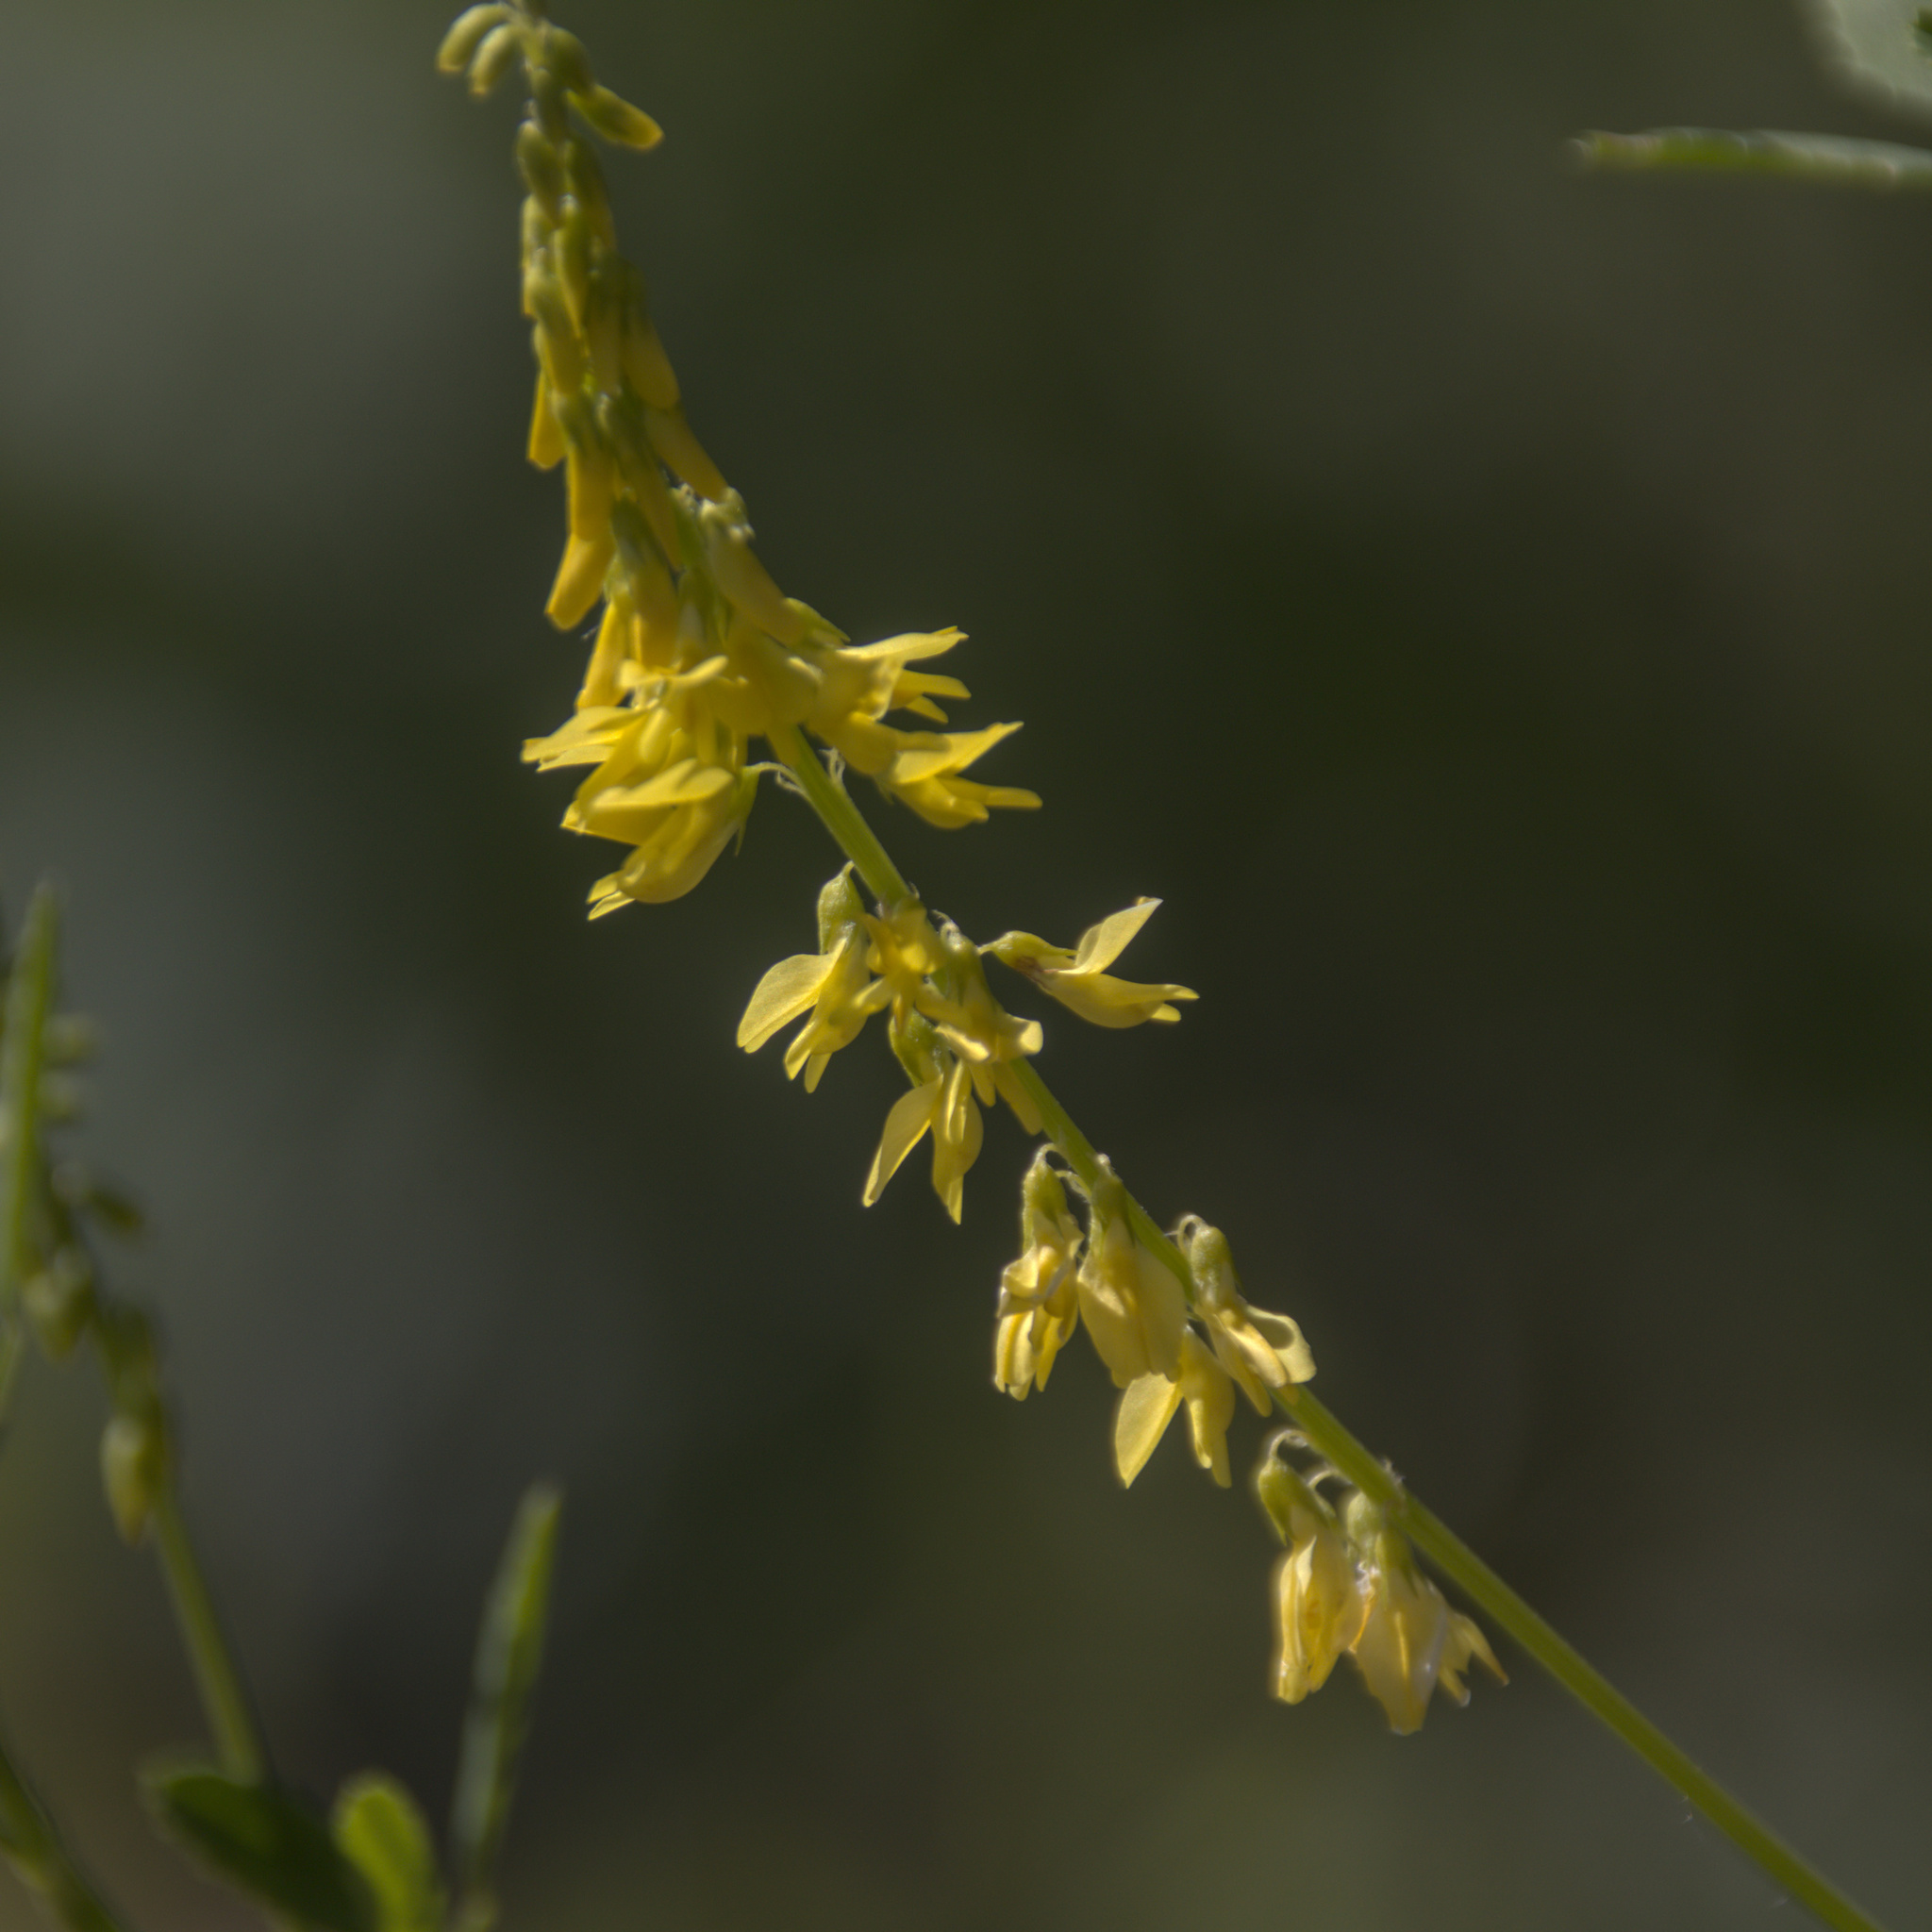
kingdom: Plantae
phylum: Tracheophyta
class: Magnoliopsida
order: Fabales
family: Fabaceae
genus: Melilotus
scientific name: Melilotus officinalis
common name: Sweetclover
